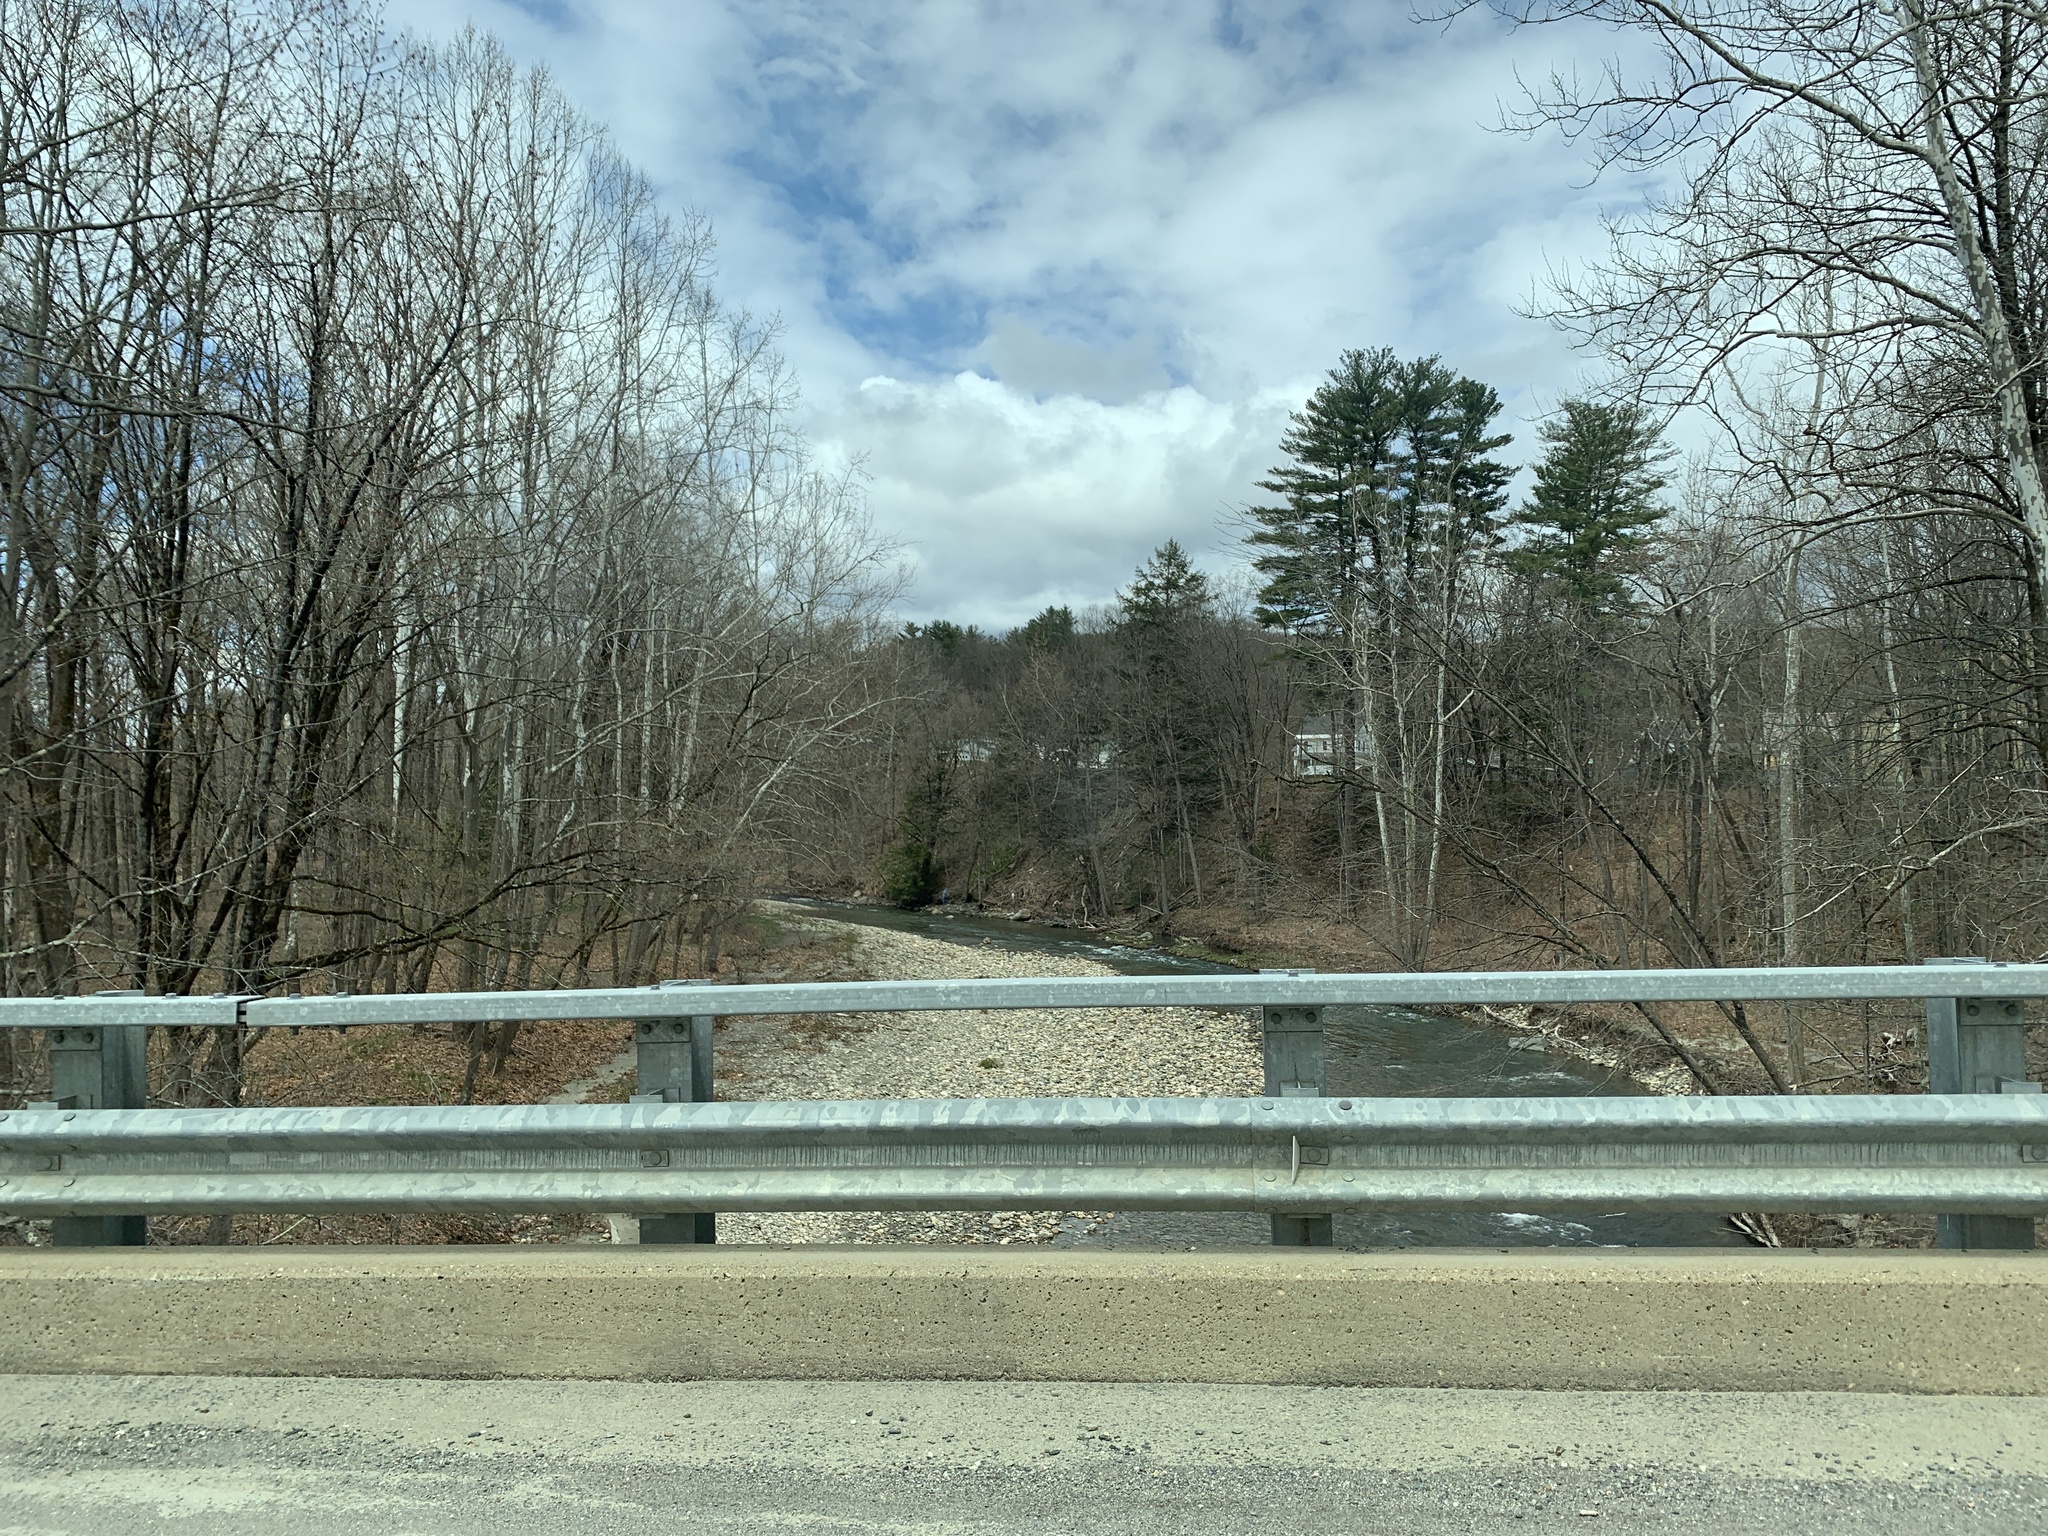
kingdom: Plantae
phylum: Tracheophyta
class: Magnoliopsida
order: Proteales
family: Platanaceae
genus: Platanus
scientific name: Platanus occidentalis
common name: American sycamore
